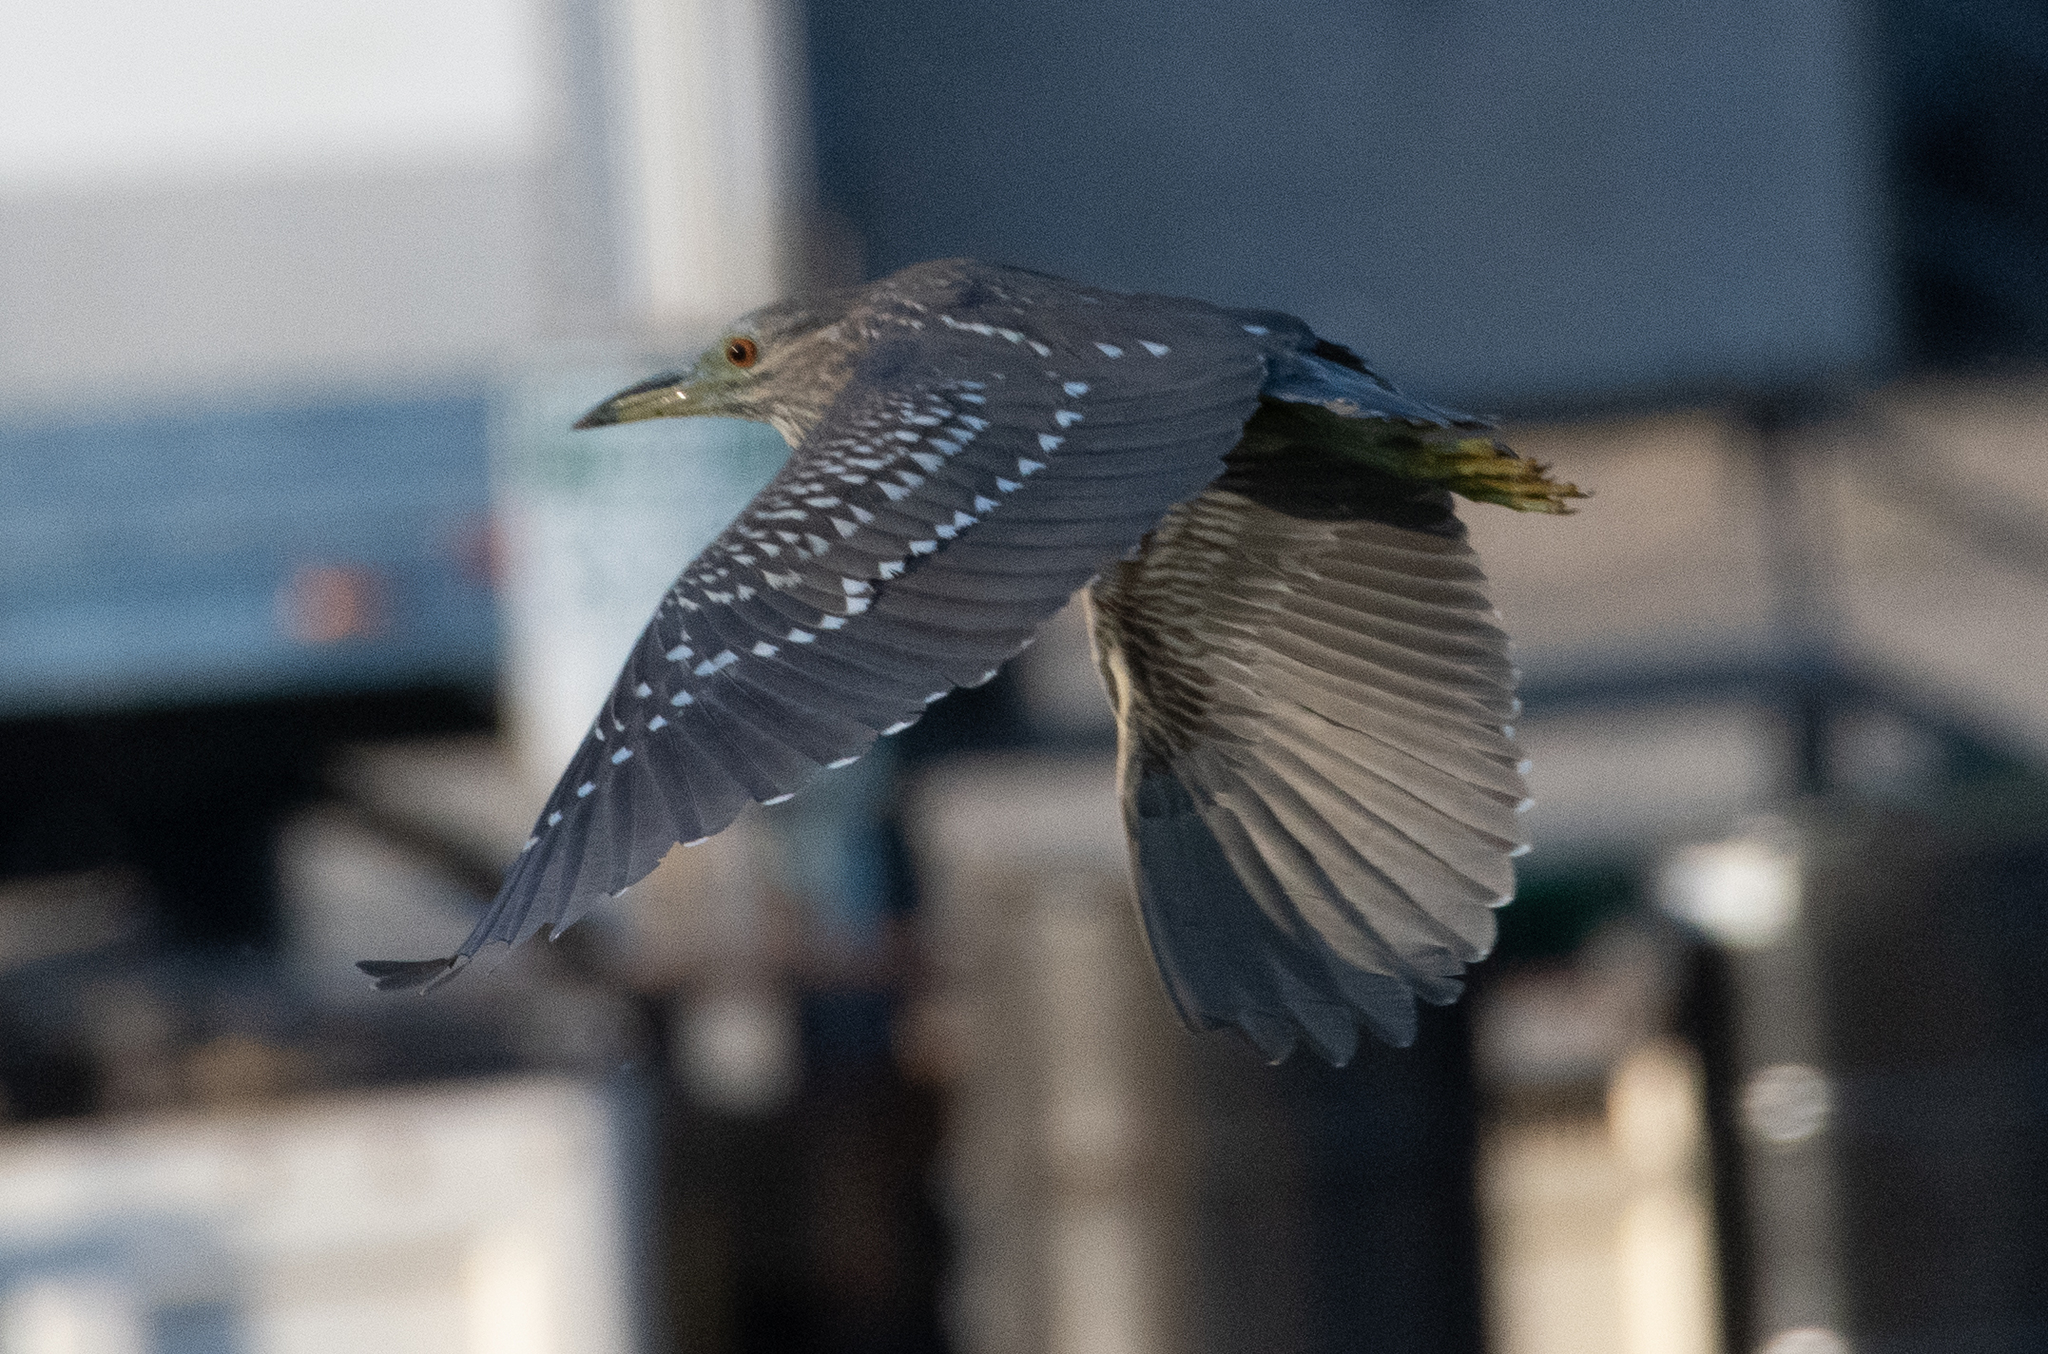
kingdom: Animalia
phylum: Chordata
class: Aves
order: Pelecaniformes
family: Ardeidae
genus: Nycticorax
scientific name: Nycticorax nycticorax
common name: Black-crowned night heron
